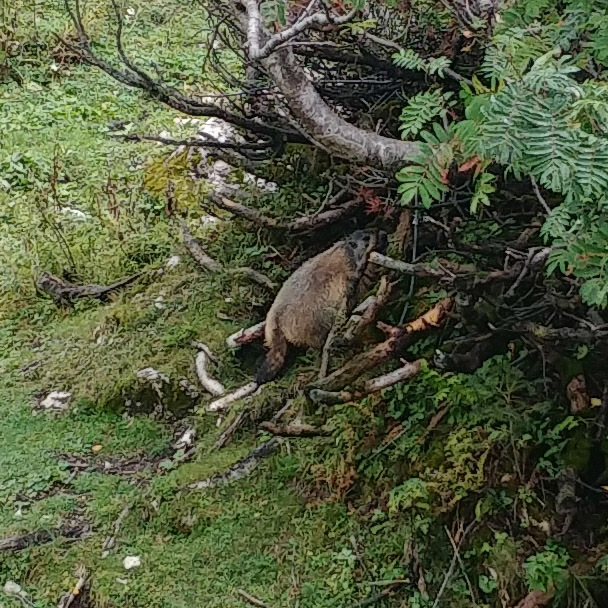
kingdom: Animalia
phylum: Chordata
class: Mammalia
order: Rodentia
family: Sciuridae
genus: Marmota
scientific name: Marmota marmota
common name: Alpine marmot
